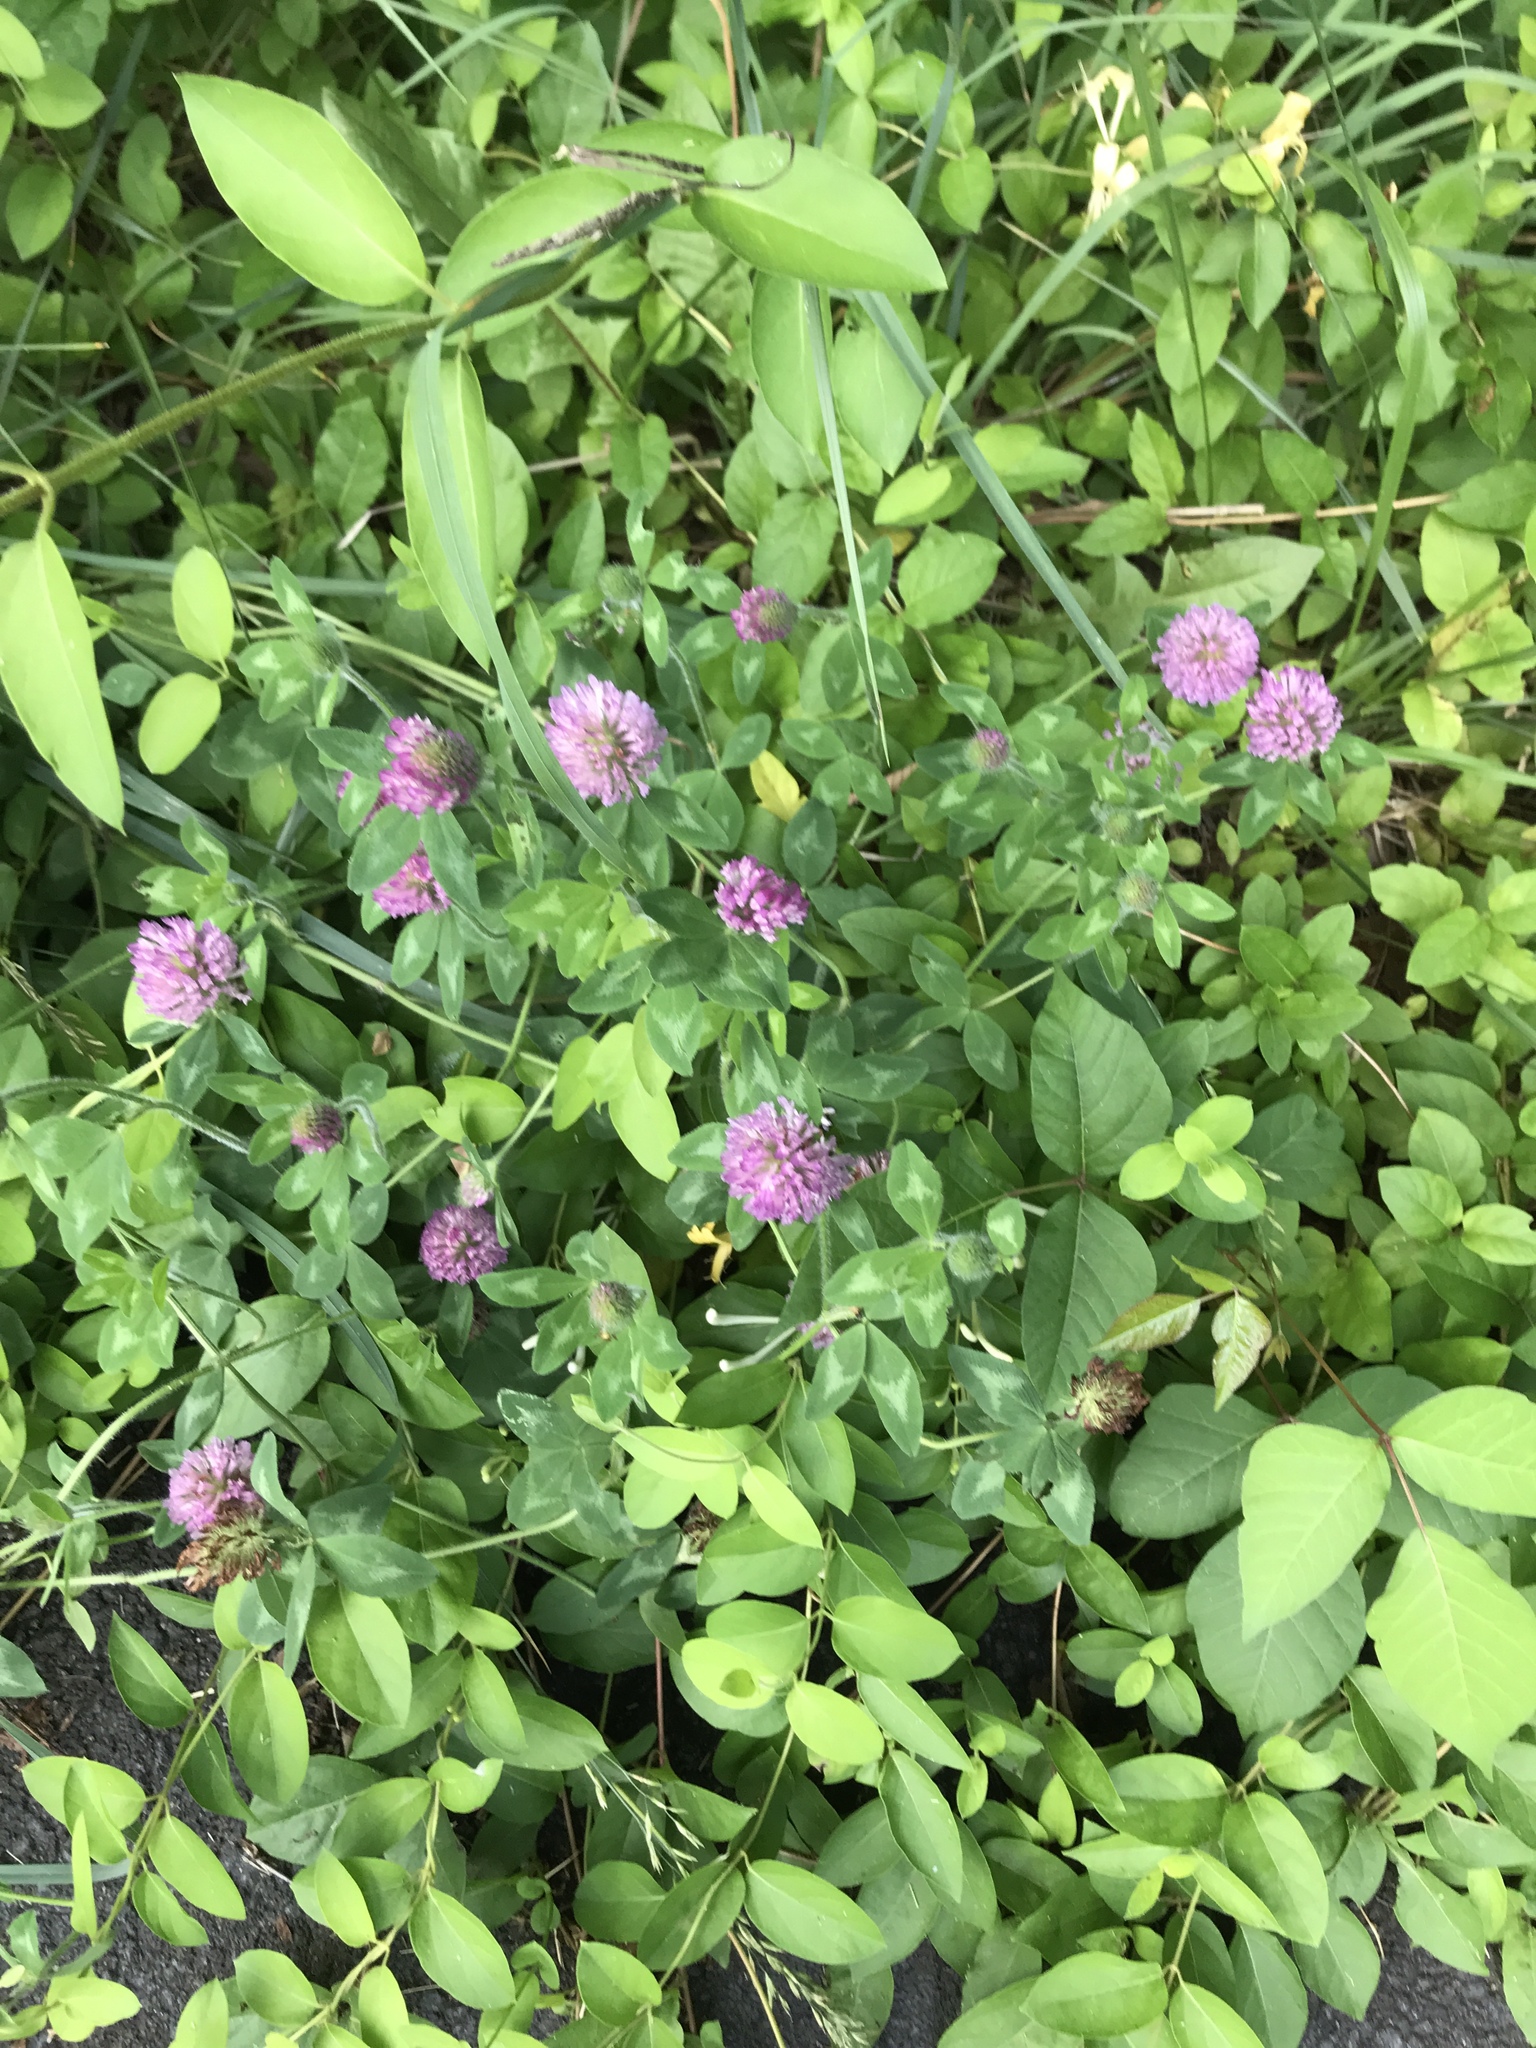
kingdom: Plantae
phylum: Tracheophyta
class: Magnoliopsida
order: Fabales
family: Fabaceae
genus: Trifolium
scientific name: Trifolium pratense
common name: Red clover
